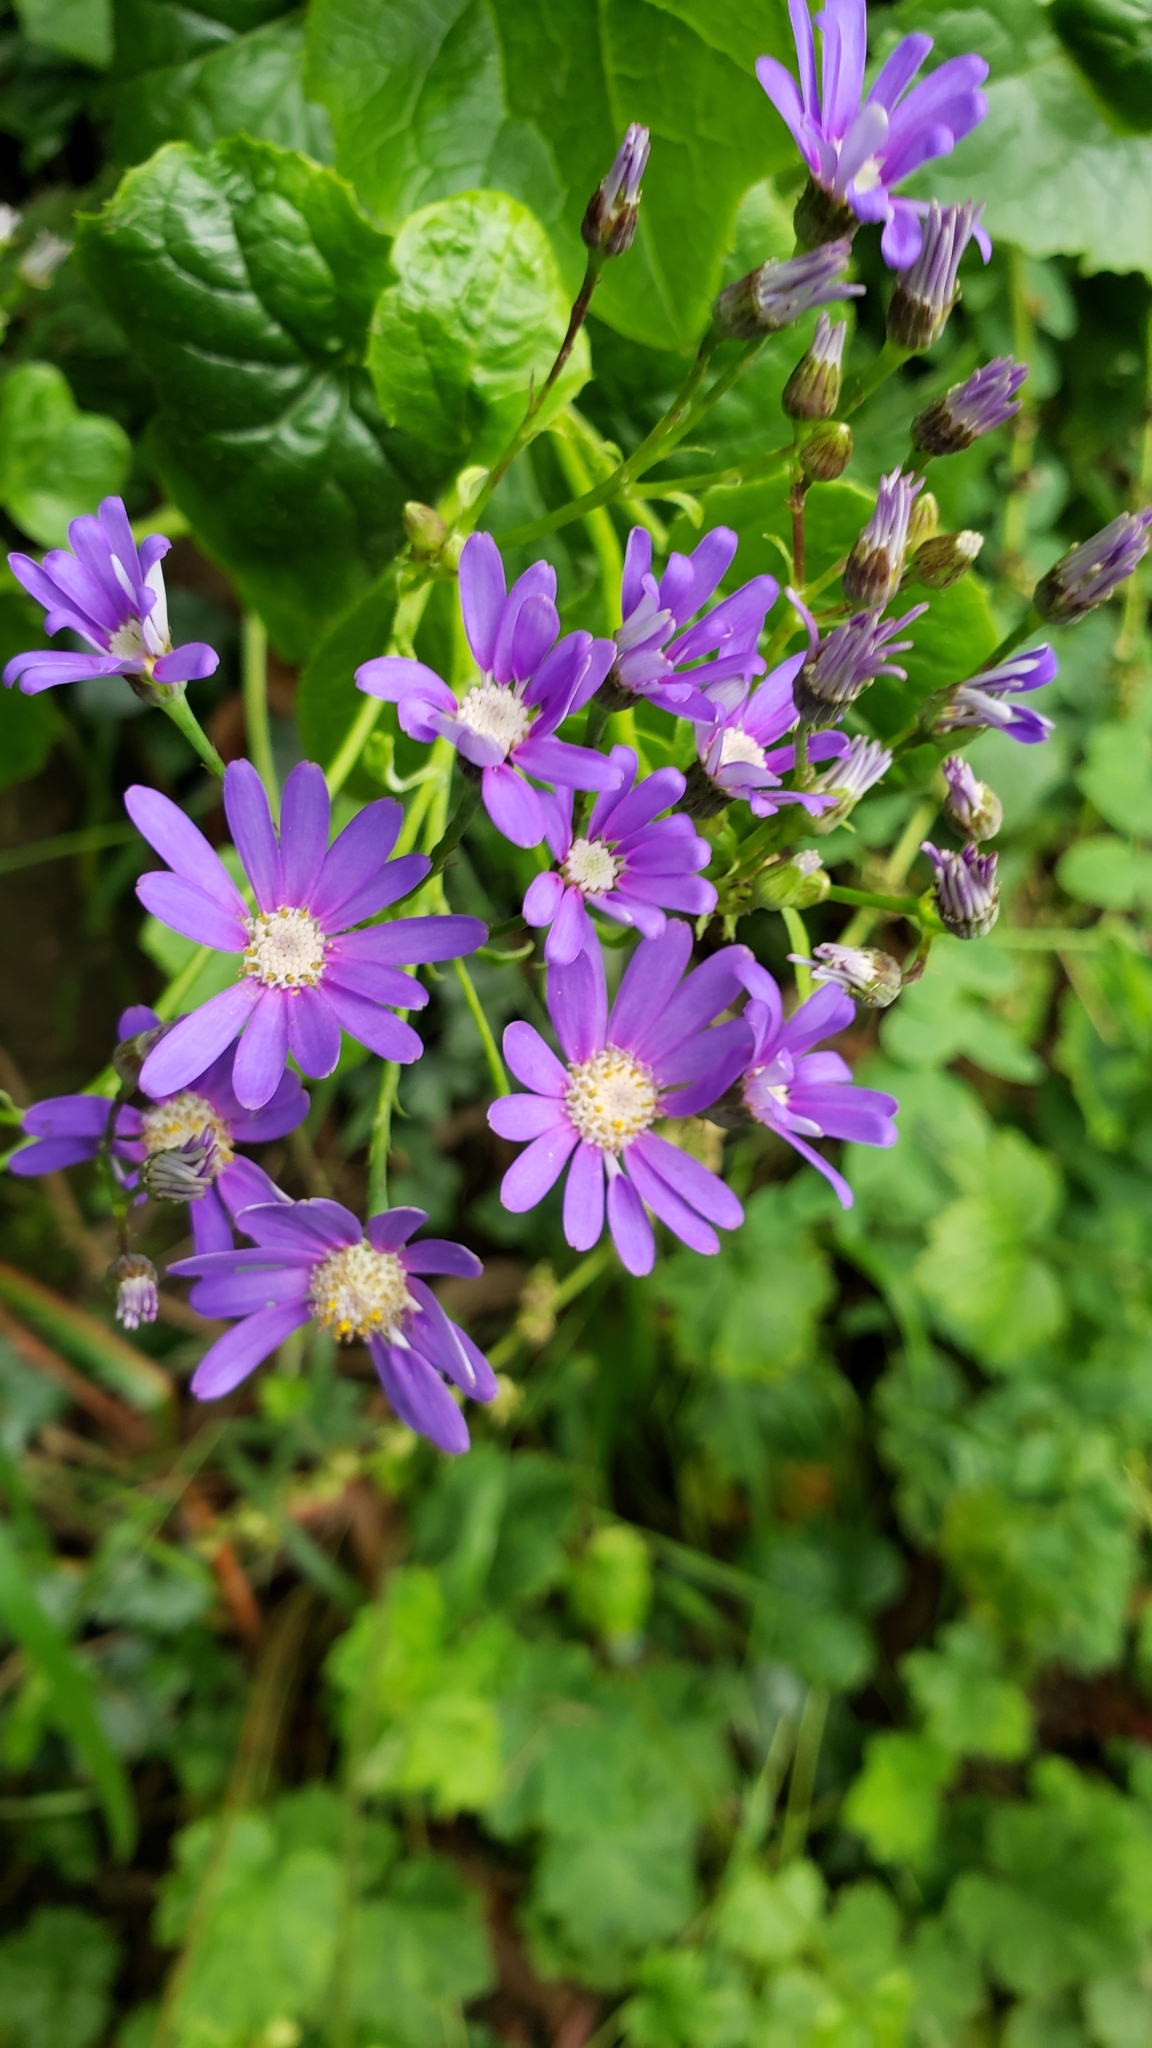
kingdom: Plantae
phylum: Tracheophyta
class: Magnoliopsida
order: Asterales
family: Asteraceae
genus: Pericallis
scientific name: Pericallis hybrida
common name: Cineraria
